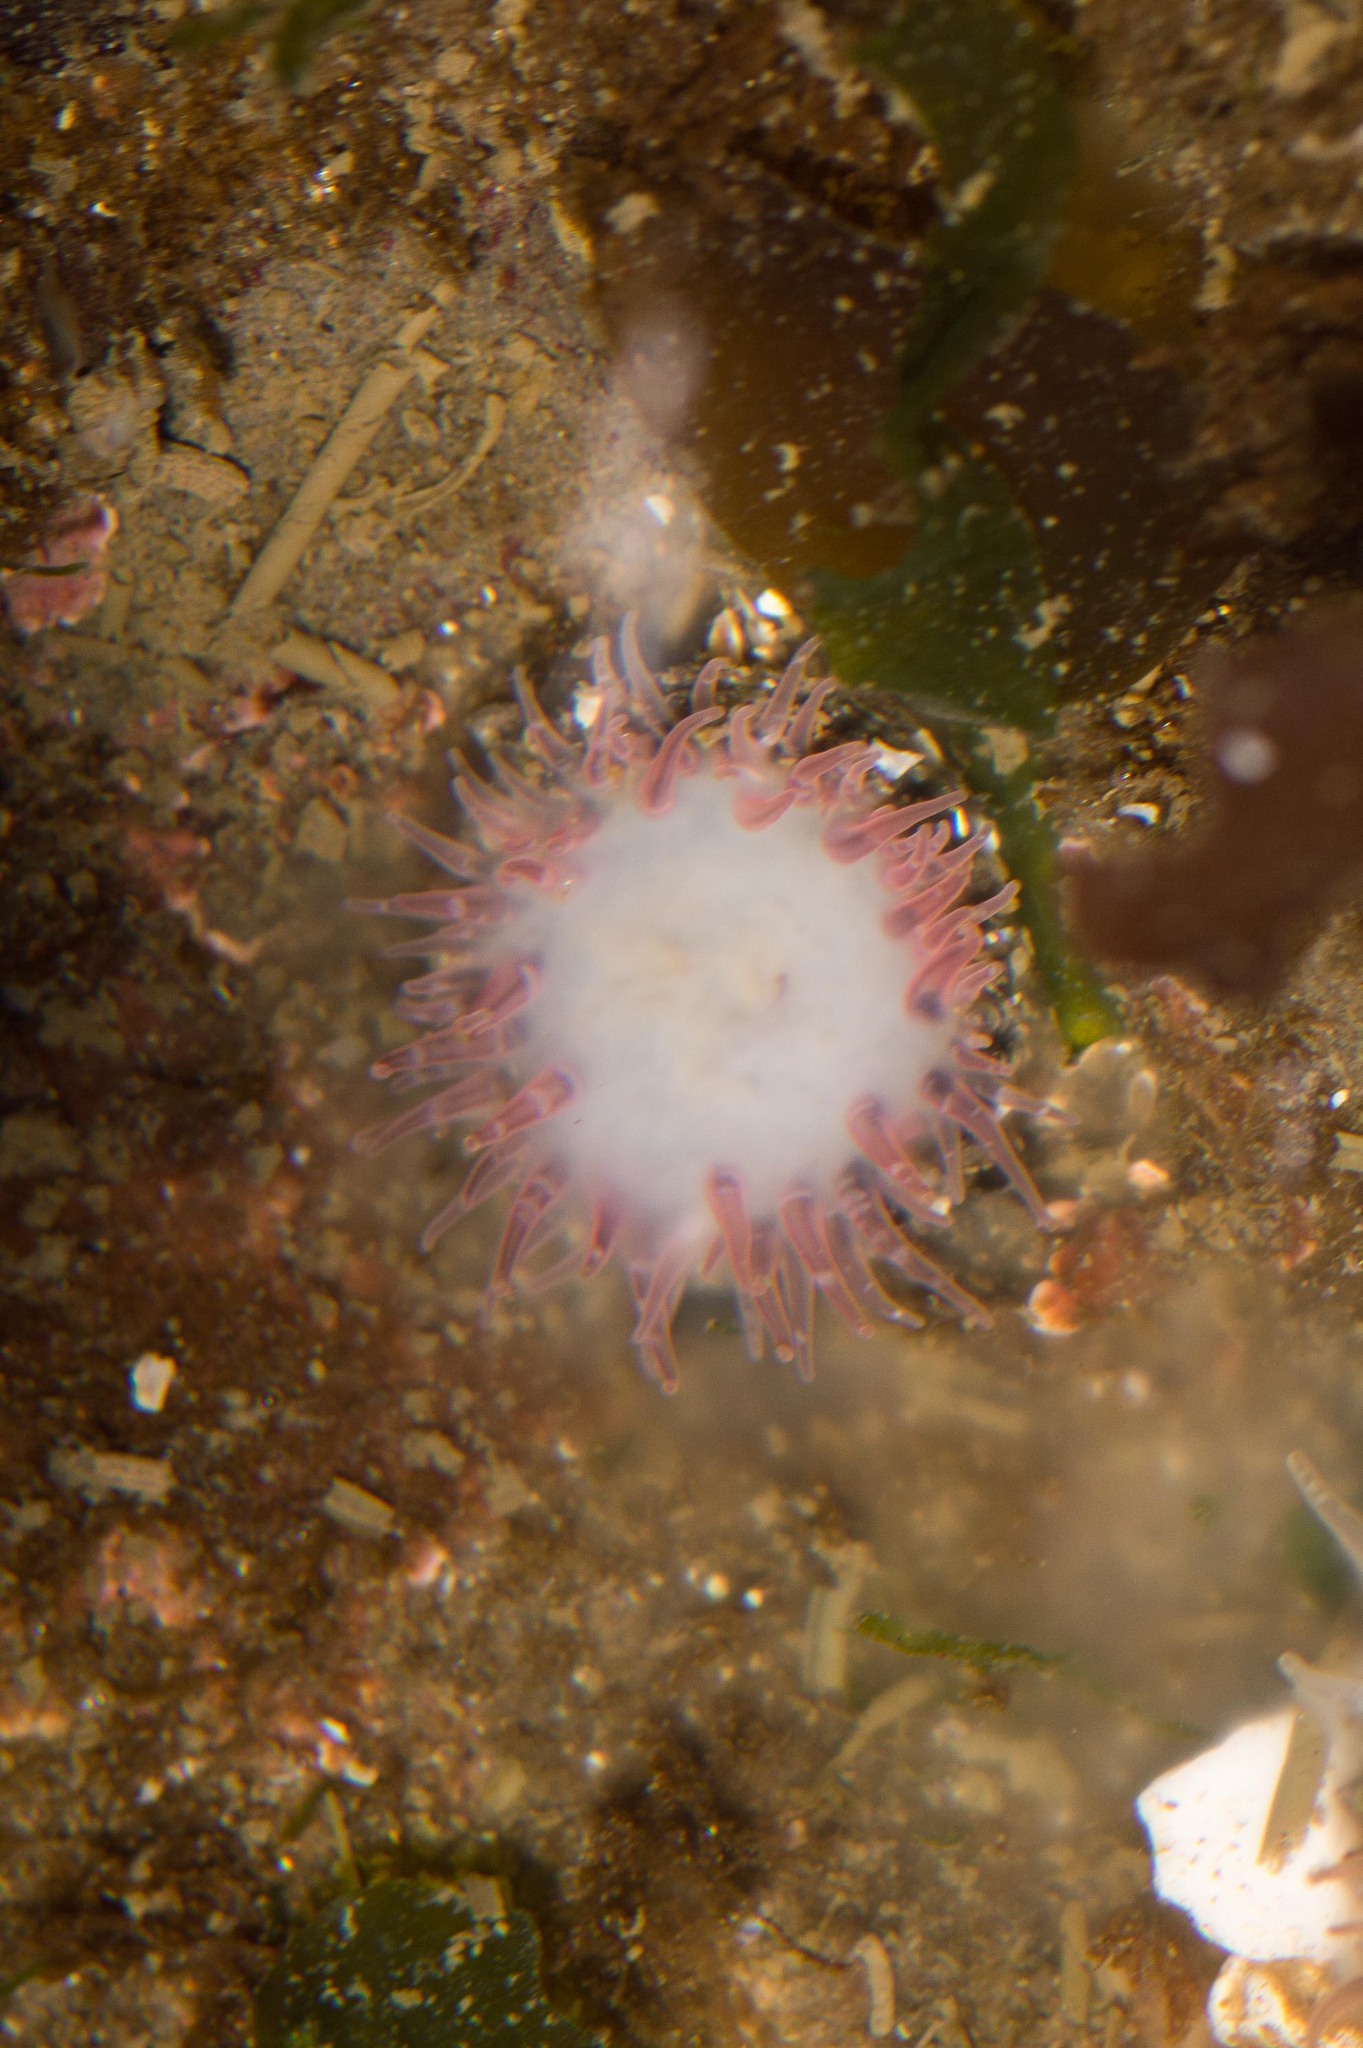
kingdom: Animalia
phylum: Cnidaria
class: Anthozoa
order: Actiniaria
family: Actiniidae
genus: Anthopleura
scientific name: Anthopleura artemisia
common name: Buried sea anemone
